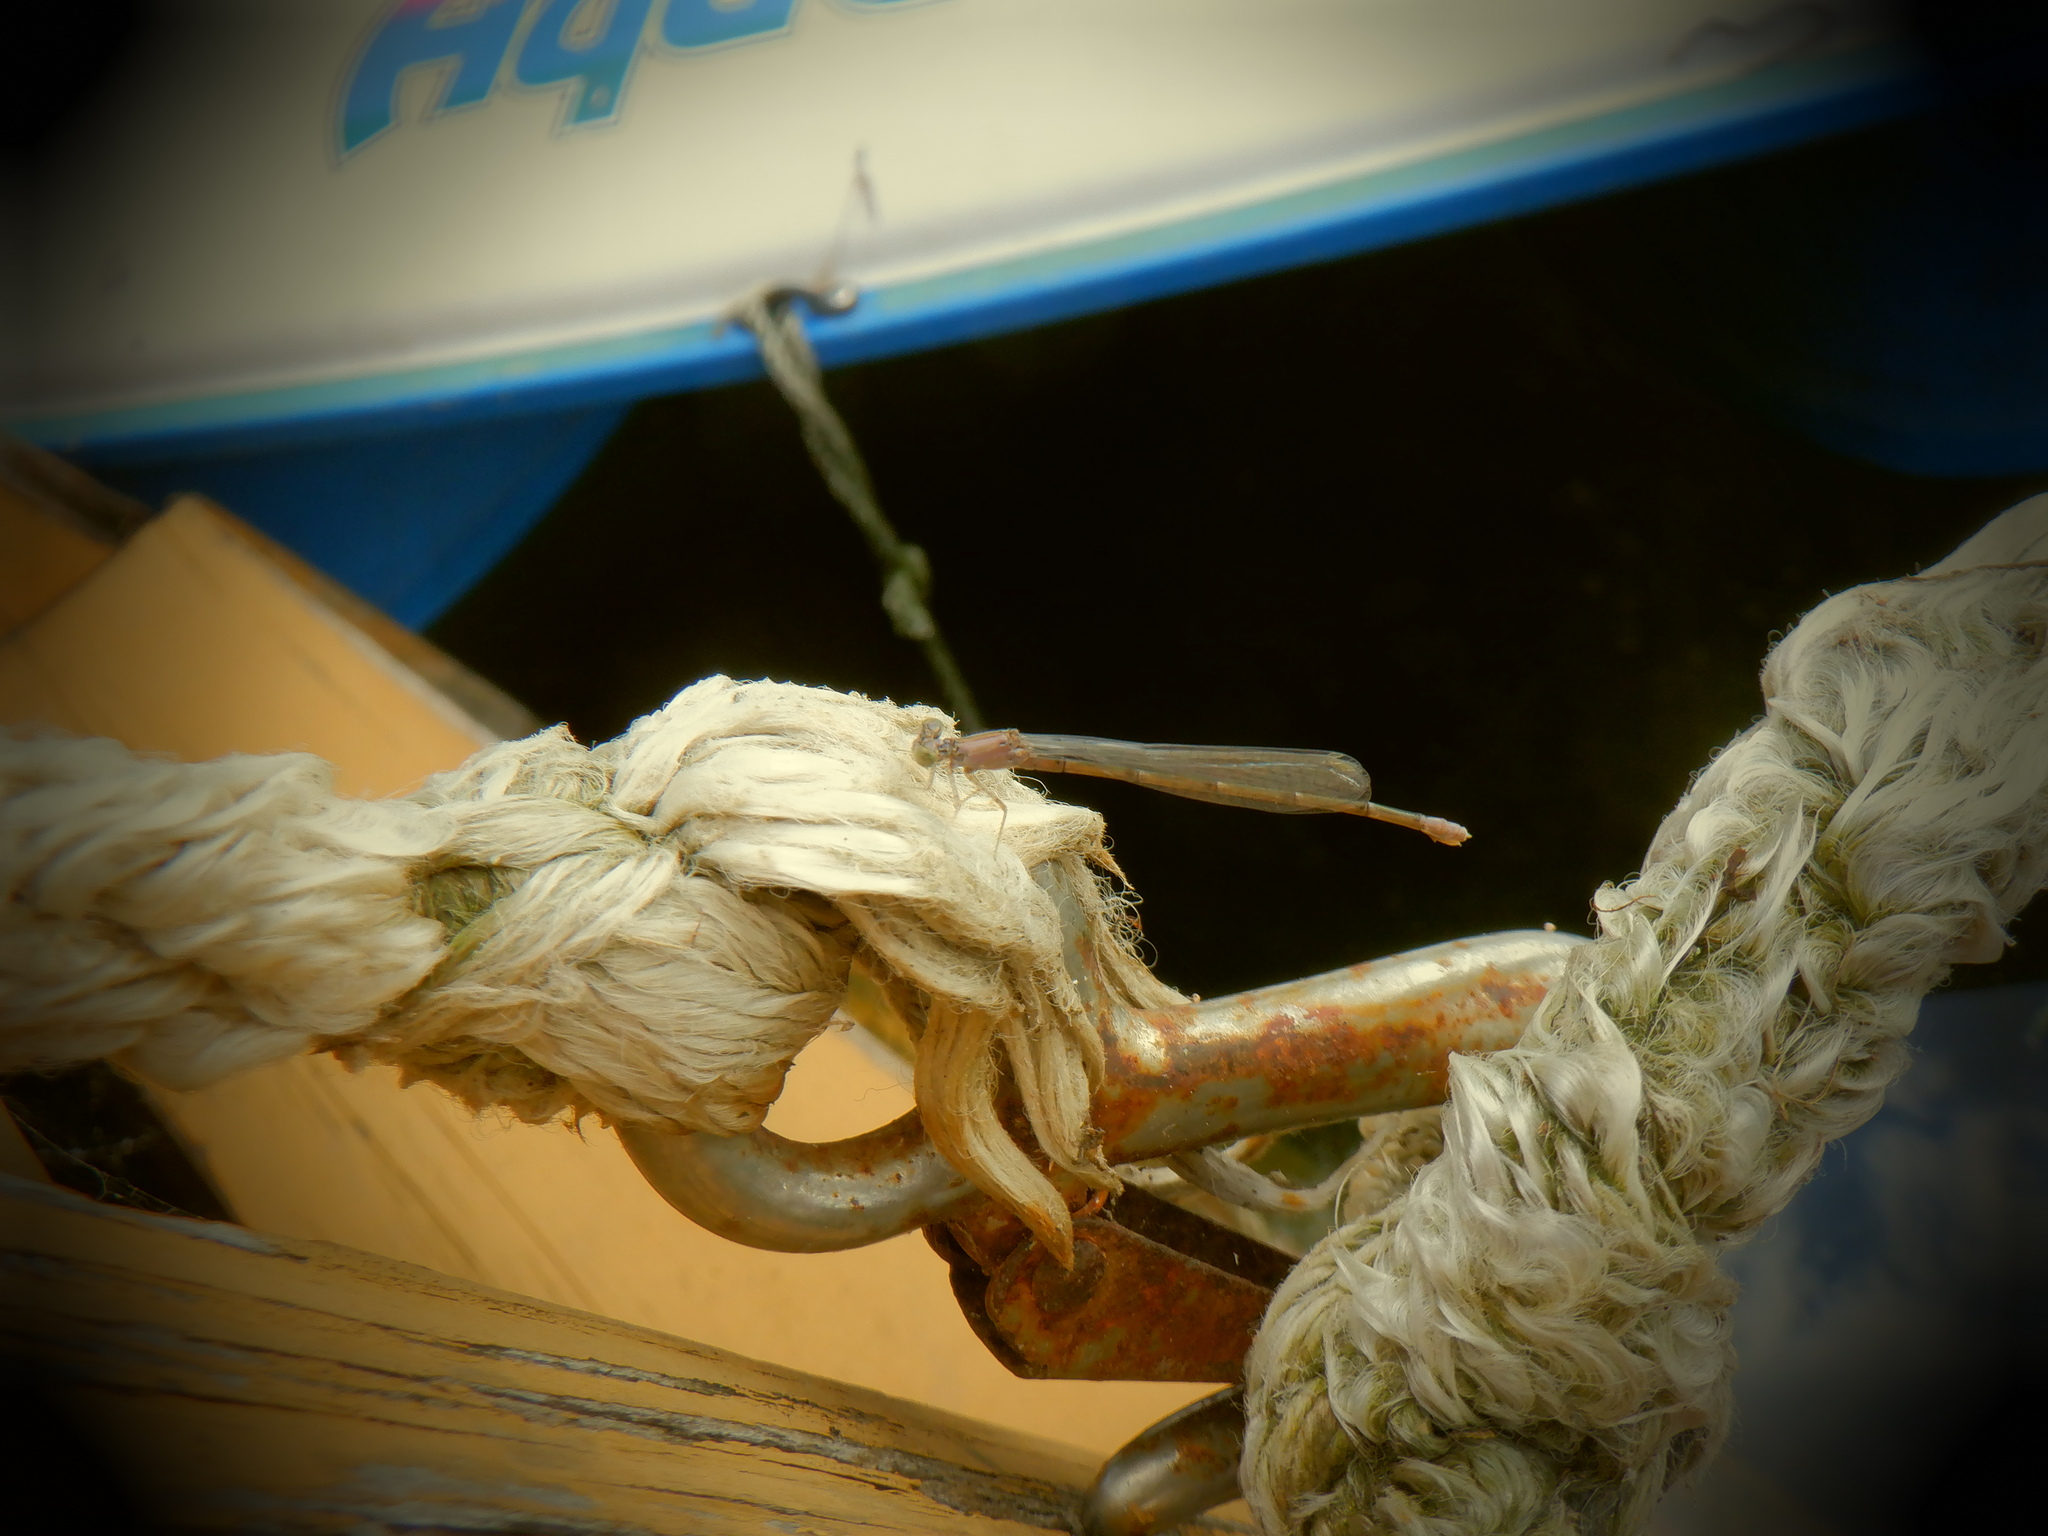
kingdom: Animalia
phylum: Arthropoda
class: Insecta
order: Odonata
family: Coenagrionidae
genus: Enallagma
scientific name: Enallagma traviatum
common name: Slender bluet
